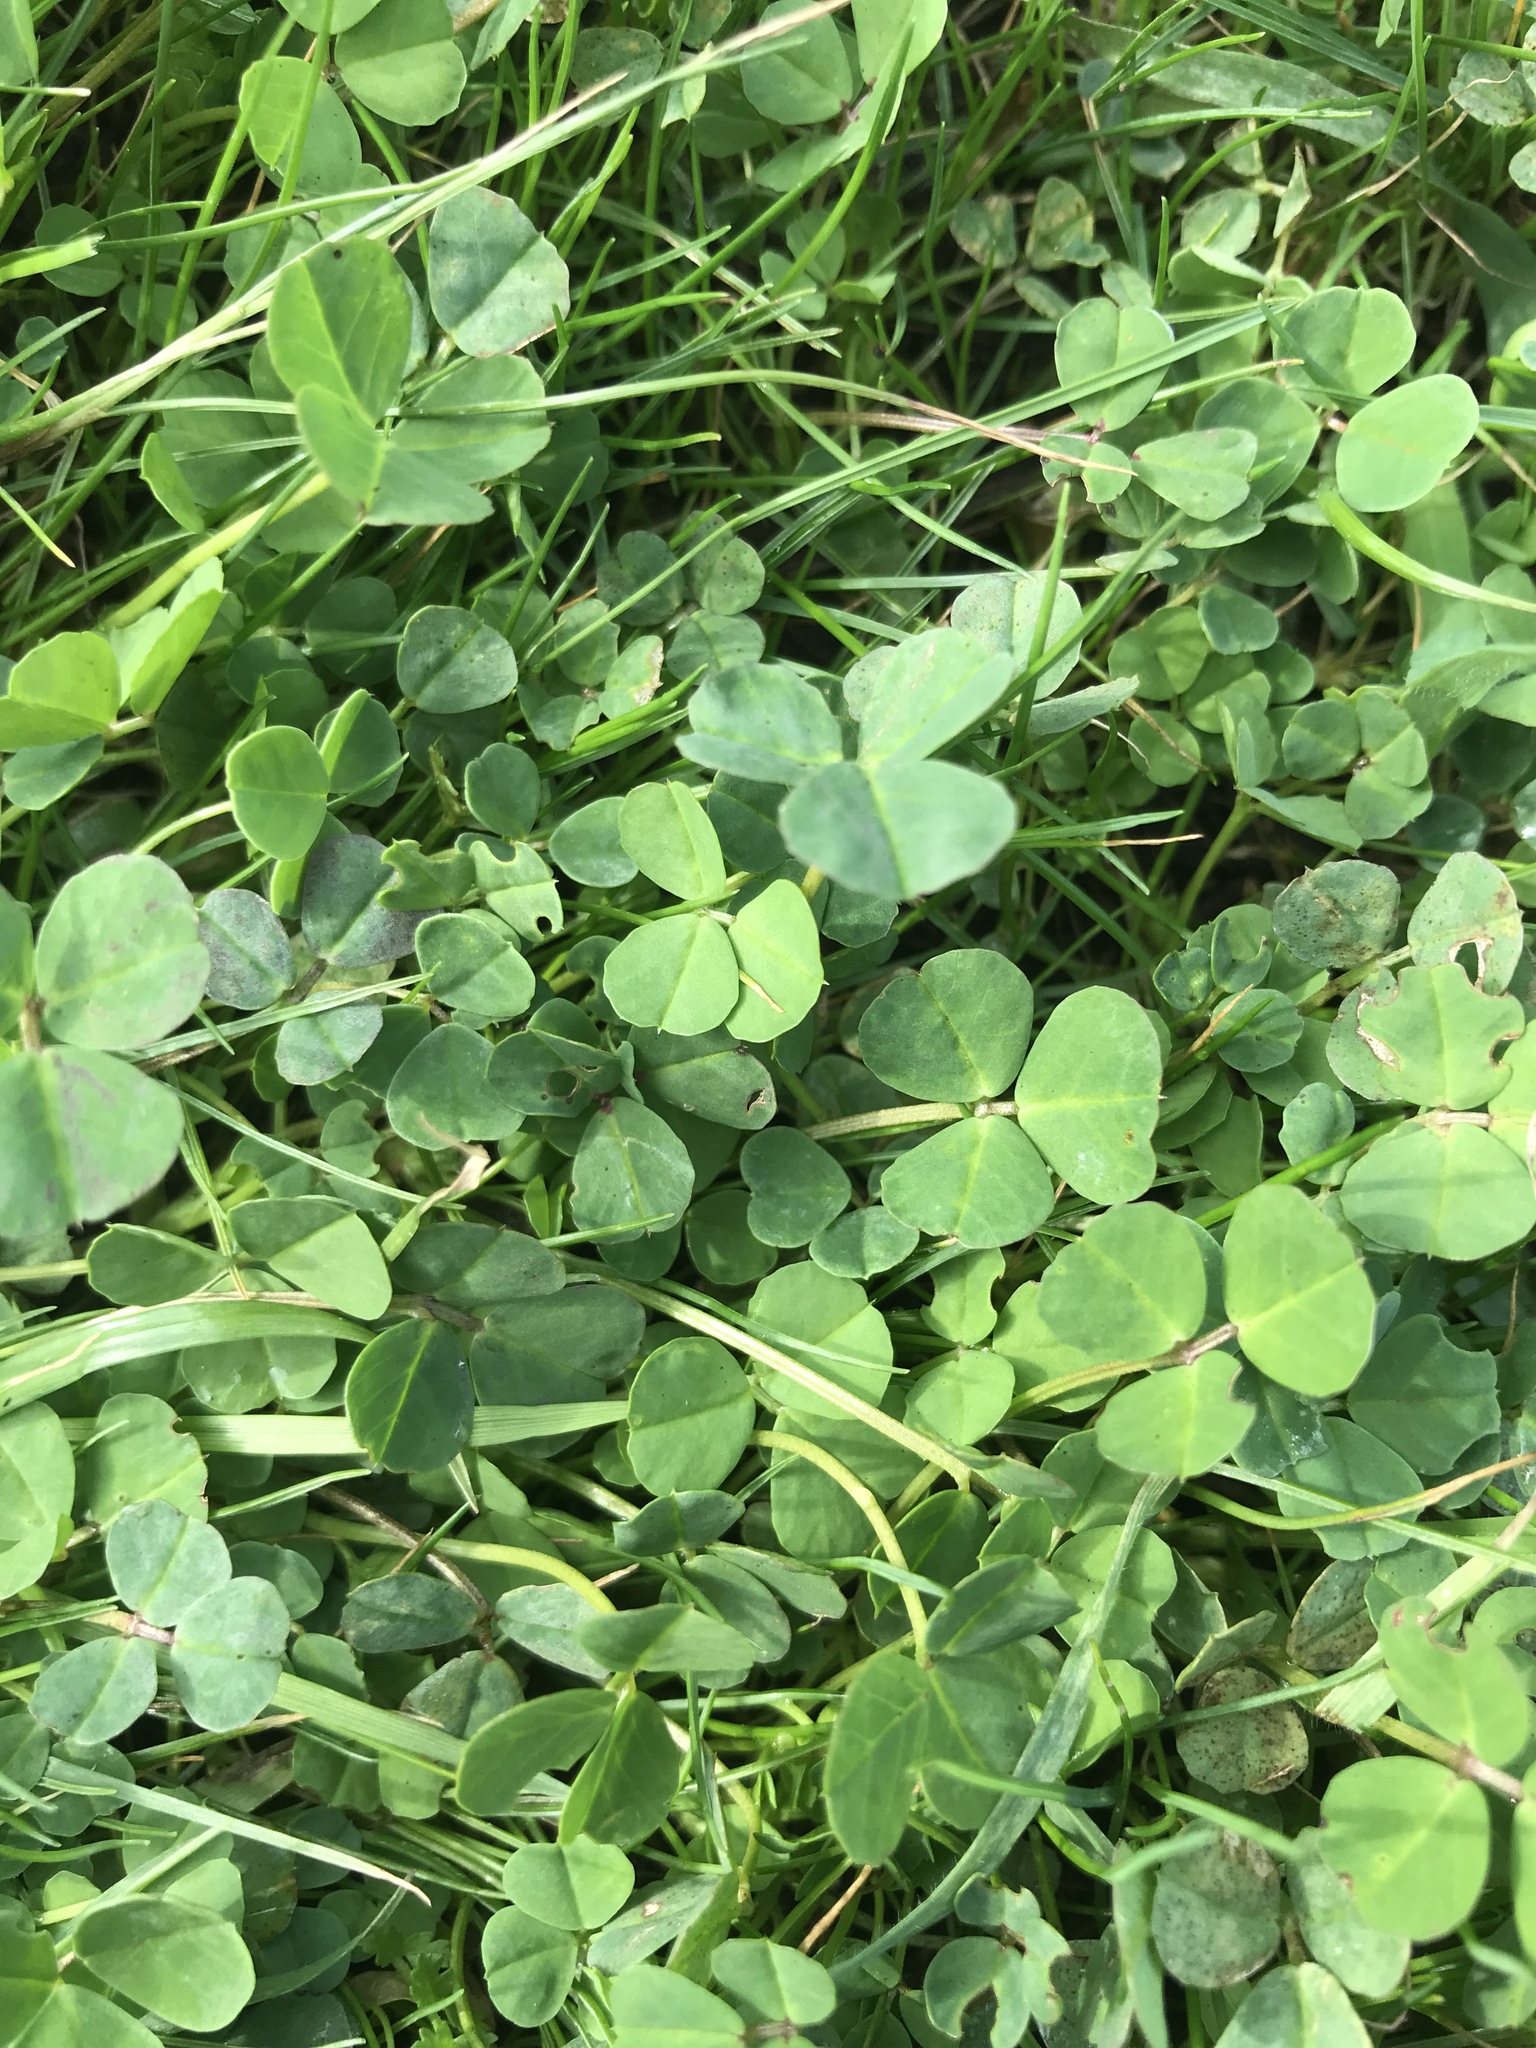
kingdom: Plantae
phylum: Tracheophyta
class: Magnoliopsida
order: Fabales
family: Fabaceae
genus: Medicago
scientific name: Medicago polymorpha
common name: Burclover
